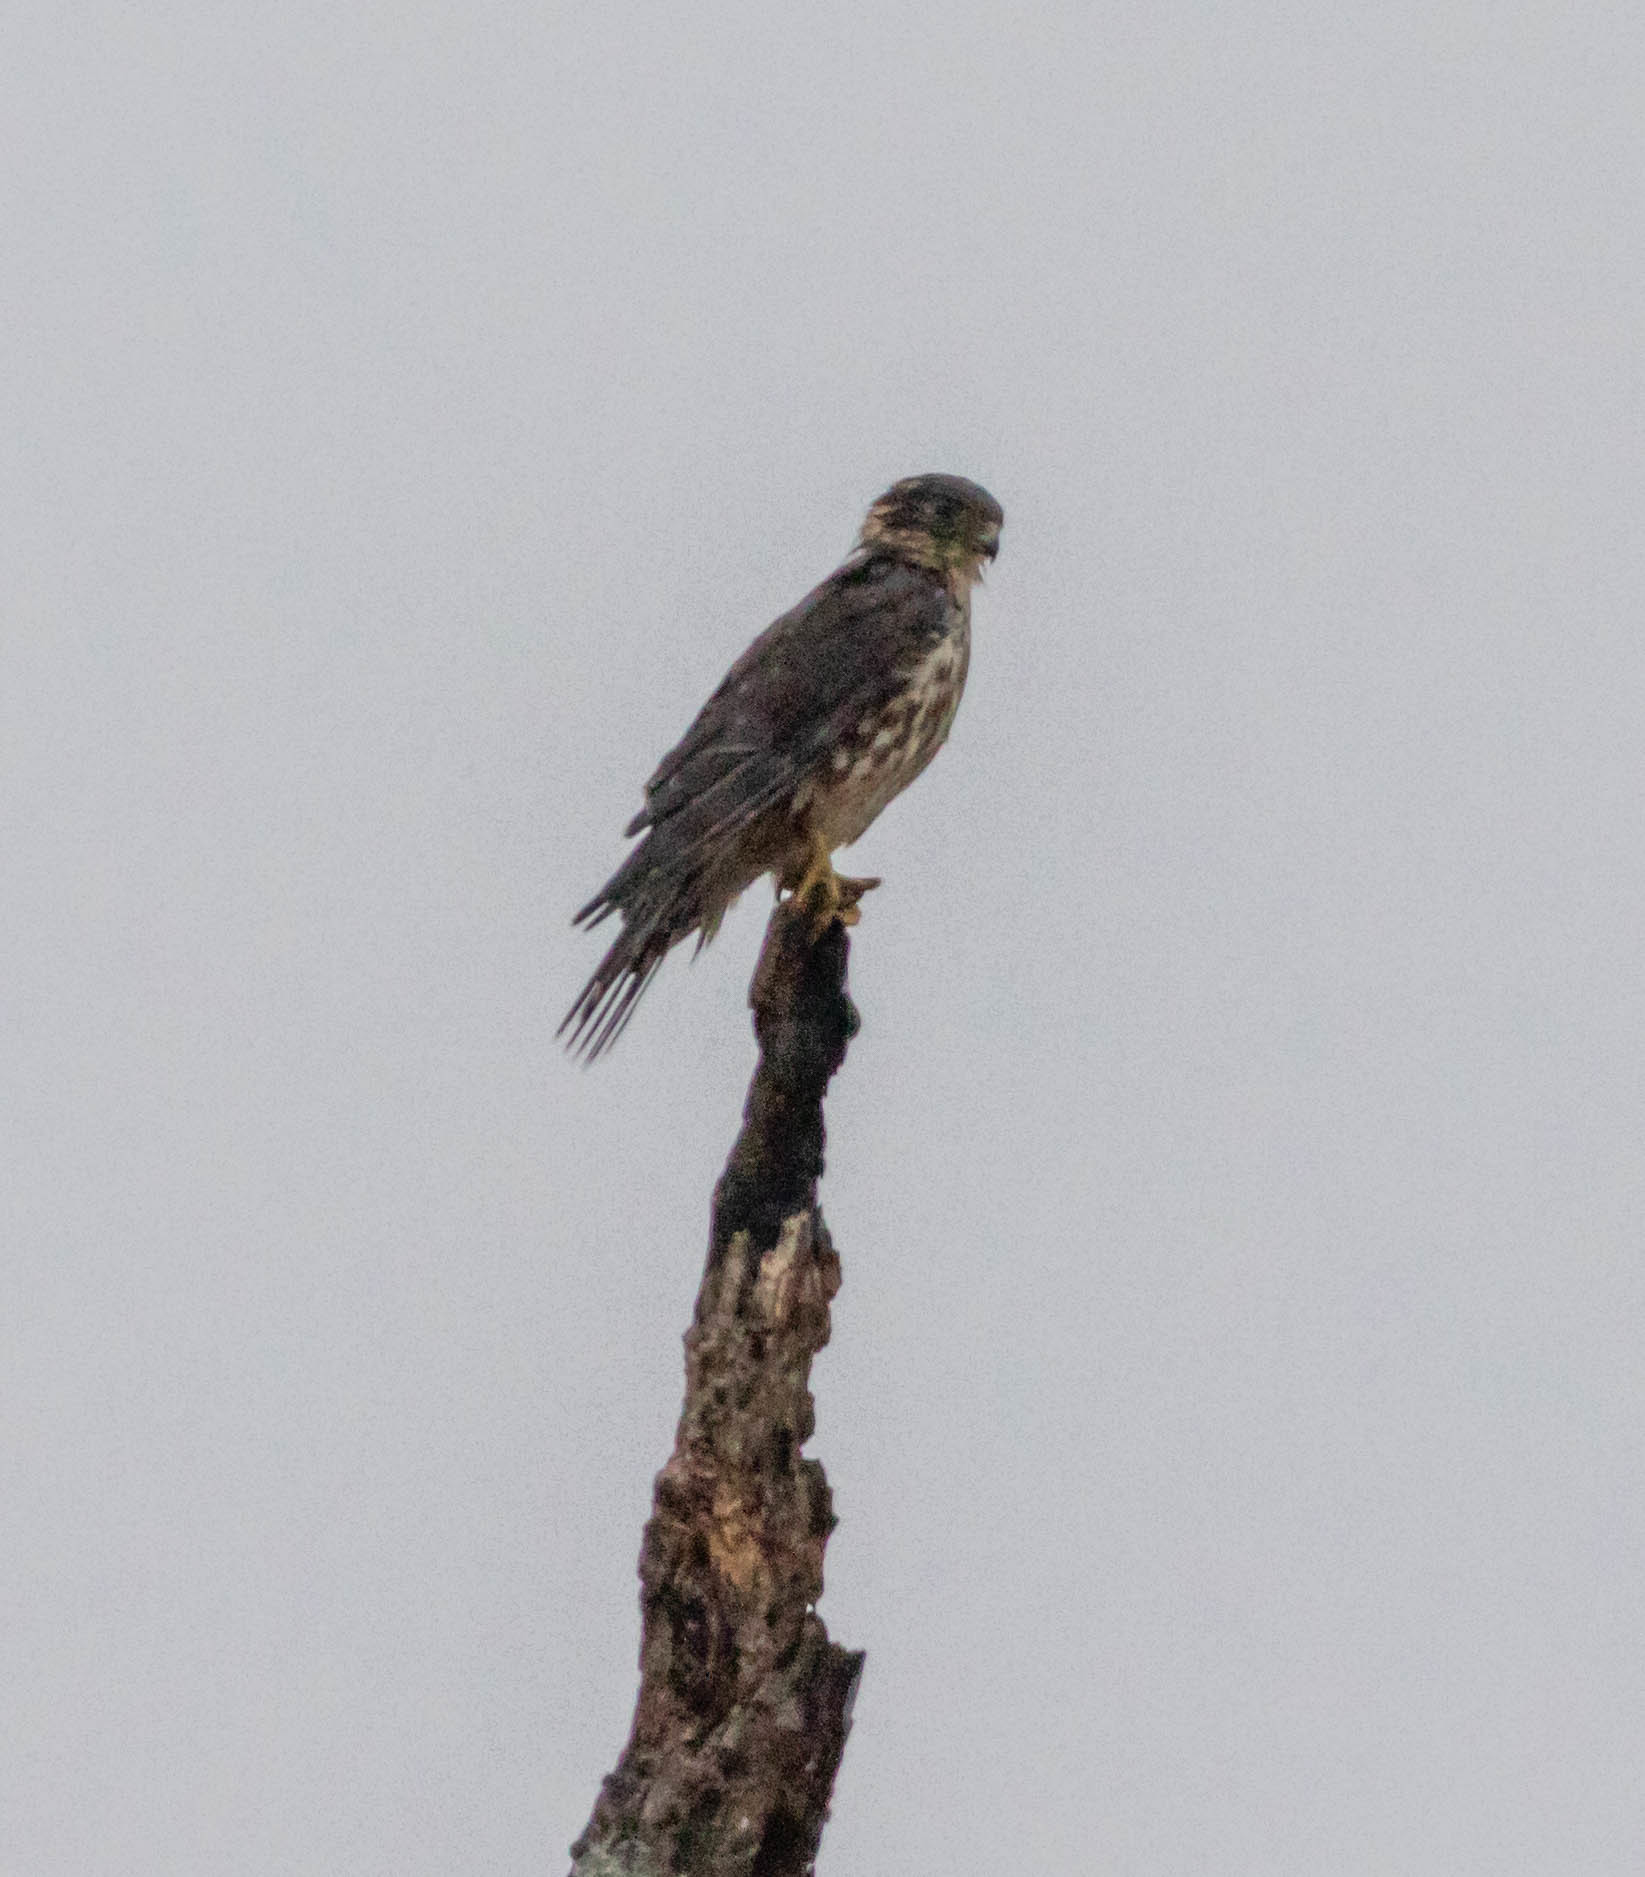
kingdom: Animalia
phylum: Chordata
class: Aves
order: Falconiformes
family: Falconidae
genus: Falco
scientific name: Falco columbarius
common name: Merlin
